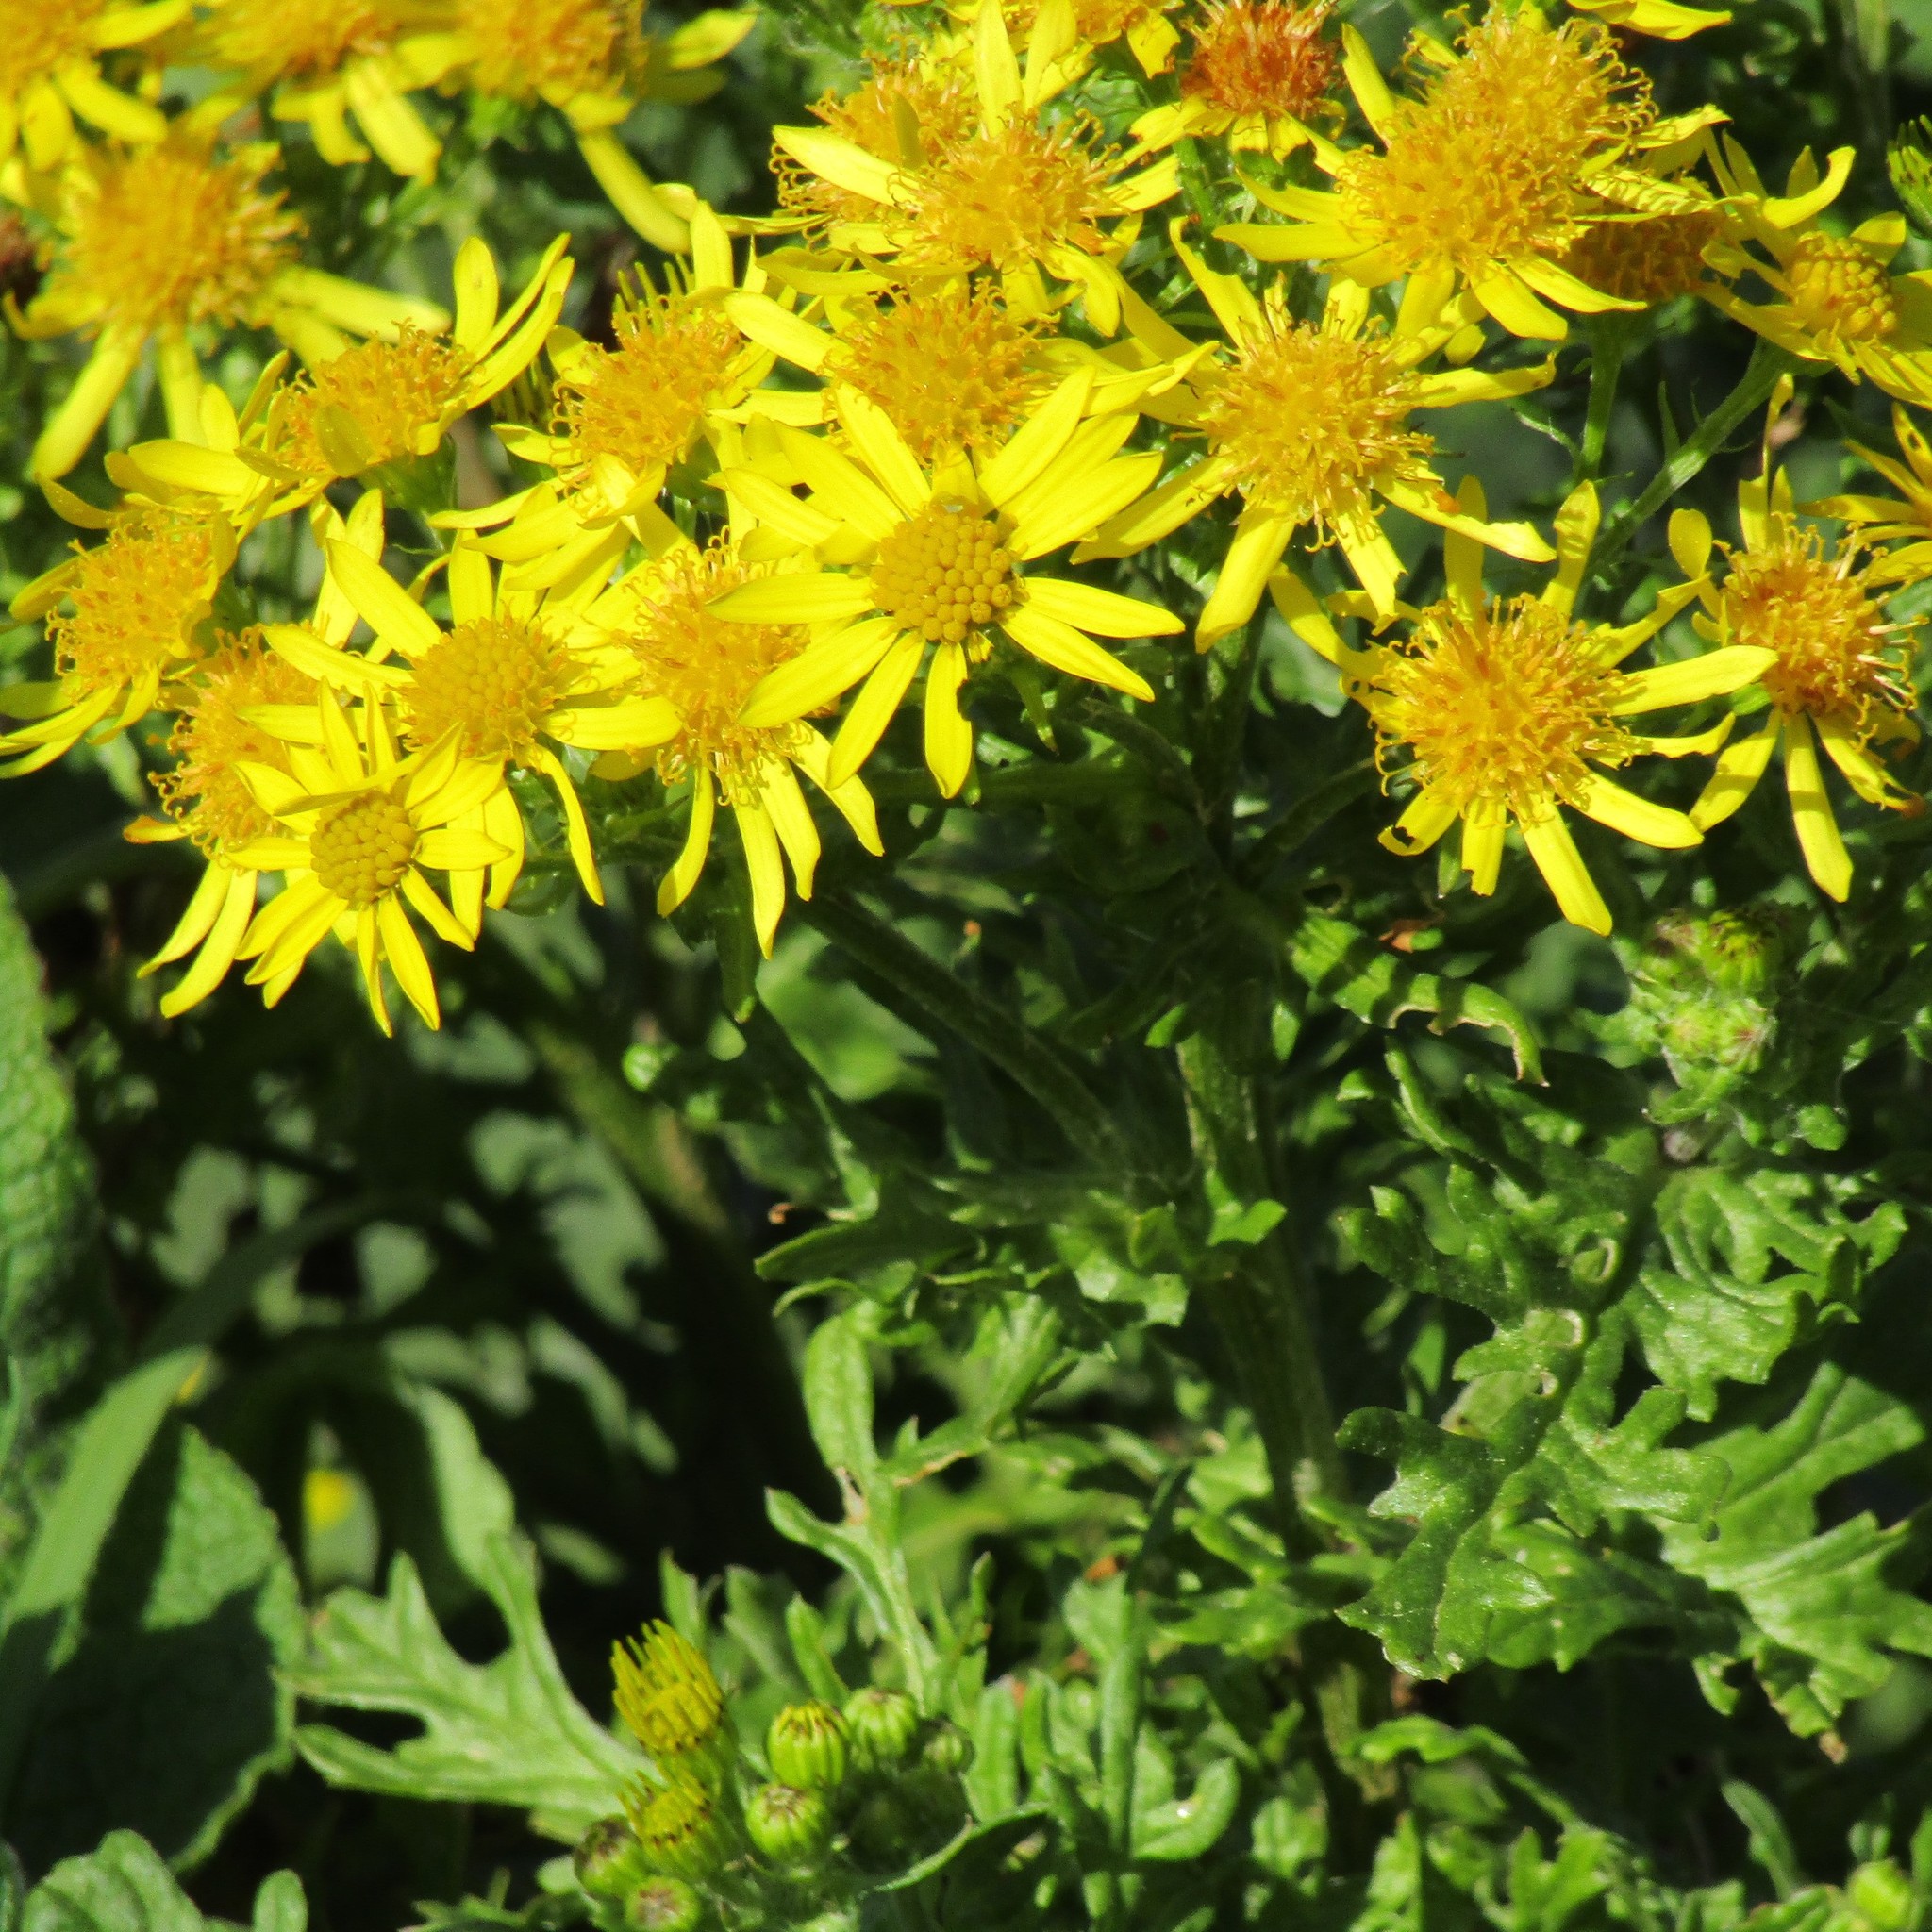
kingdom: Plantae
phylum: Tracheophyta
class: Magnoliopsida
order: Asterales
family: Asteraceae
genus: Jacobaea
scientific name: Jacobaea vulgaris
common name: Stinking willie
